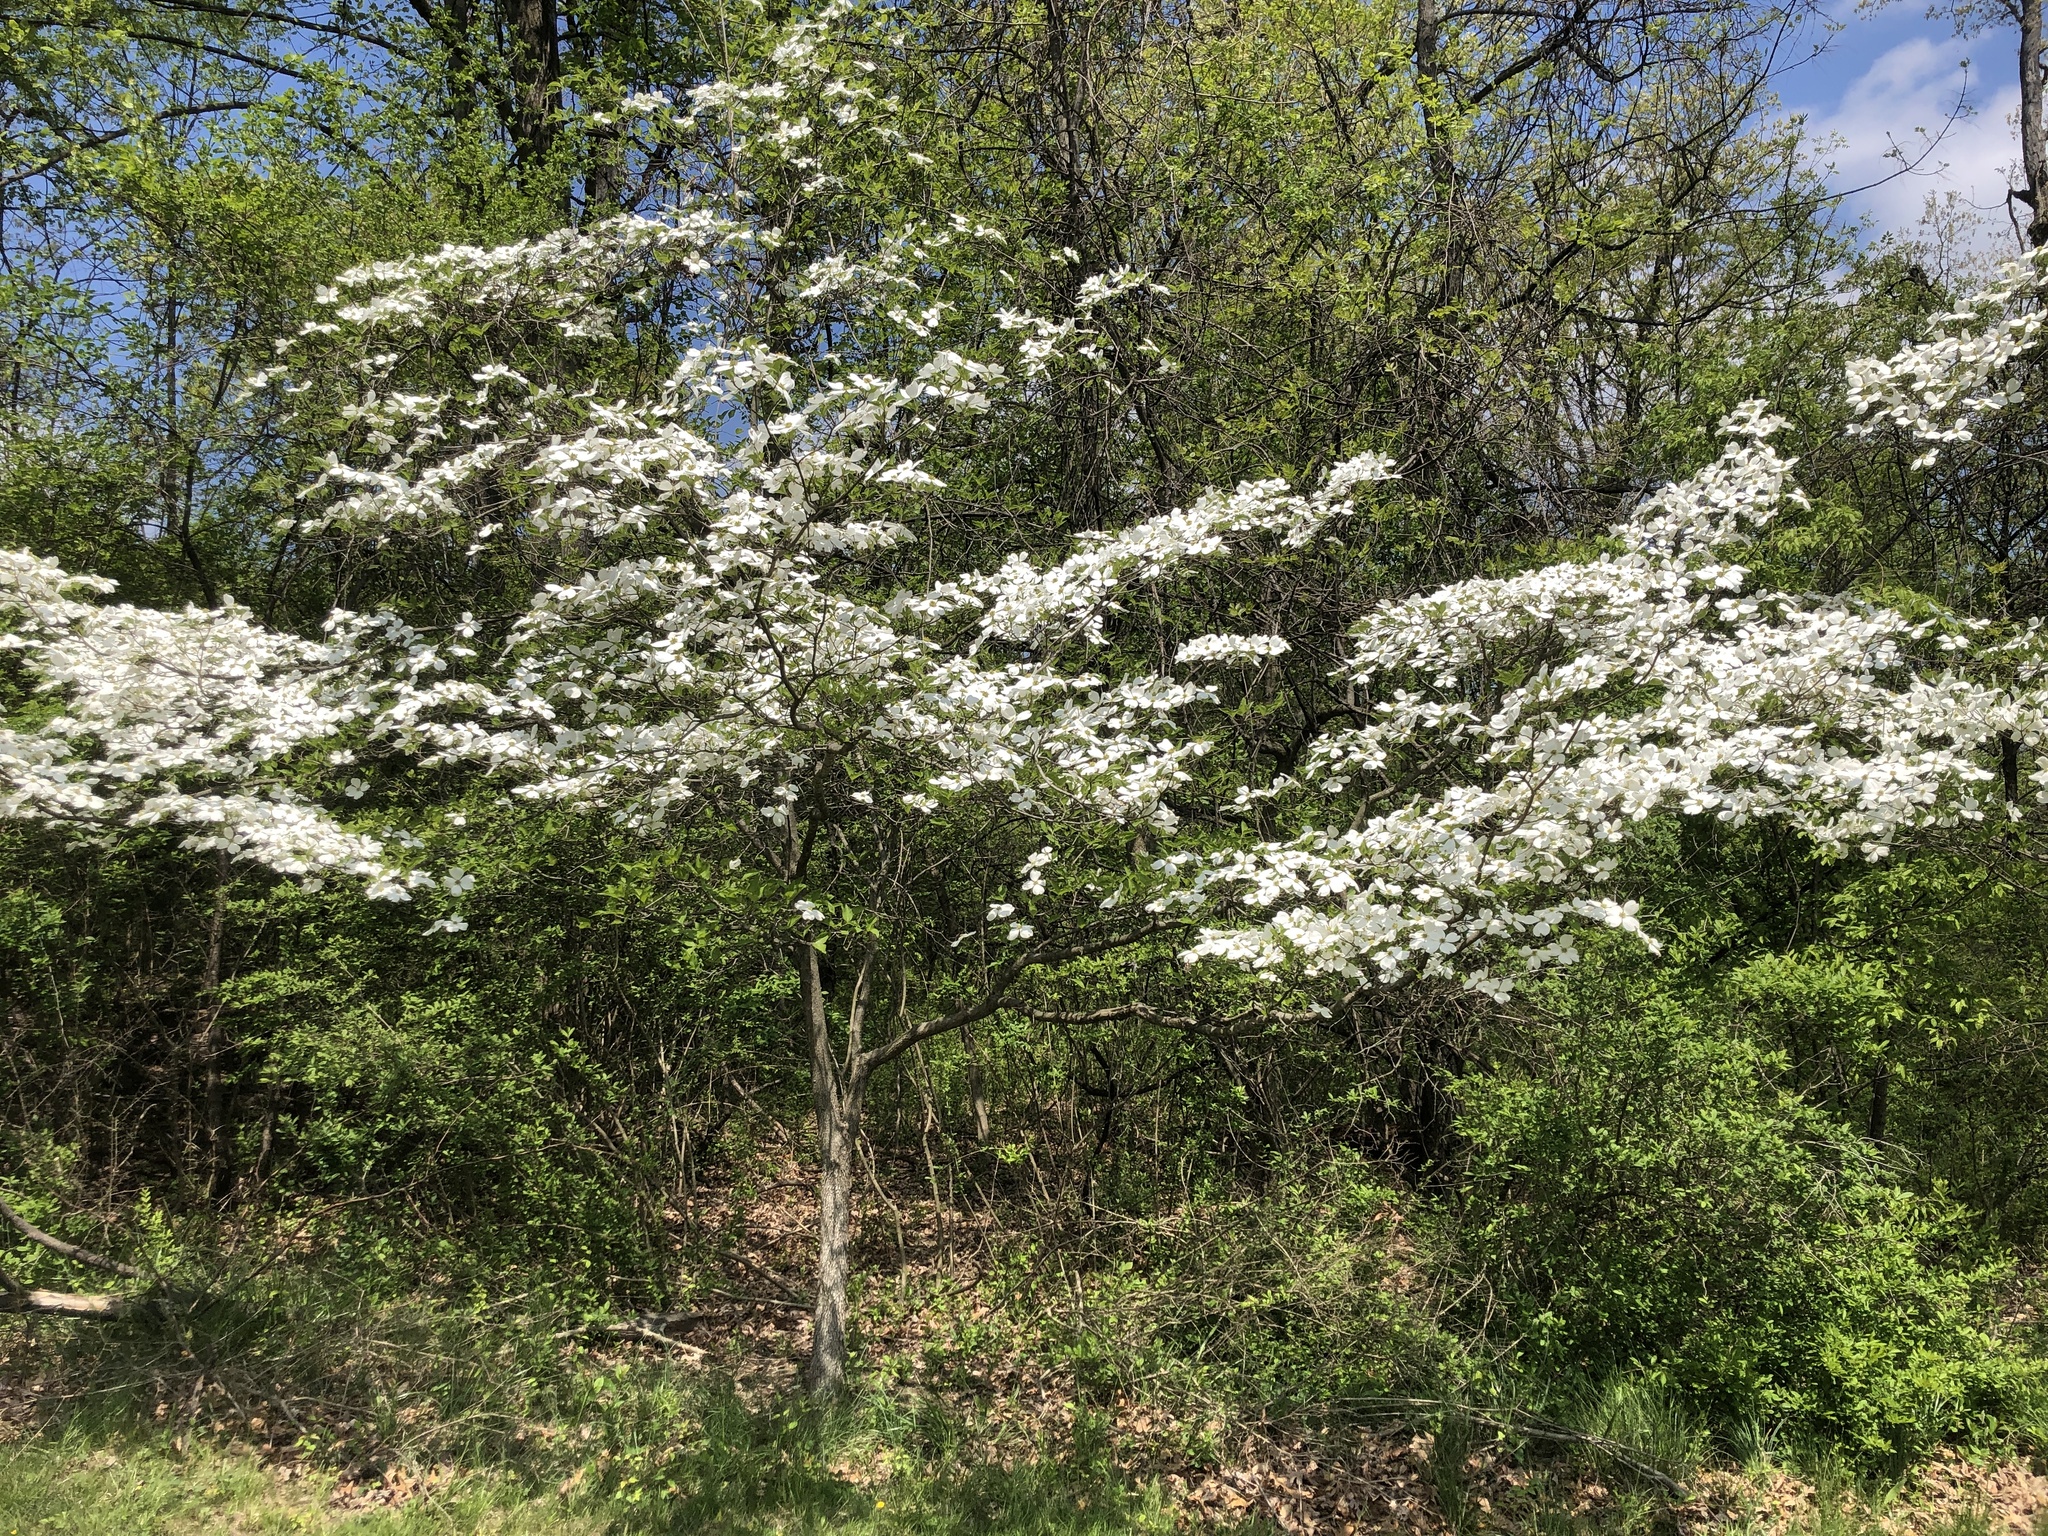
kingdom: Plantae
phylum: Tracheophyta
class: Magnoliopsida
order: Cornales
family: Cornaceae
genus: Cornus
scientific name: Cornus florida
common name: Flowering dogwood
